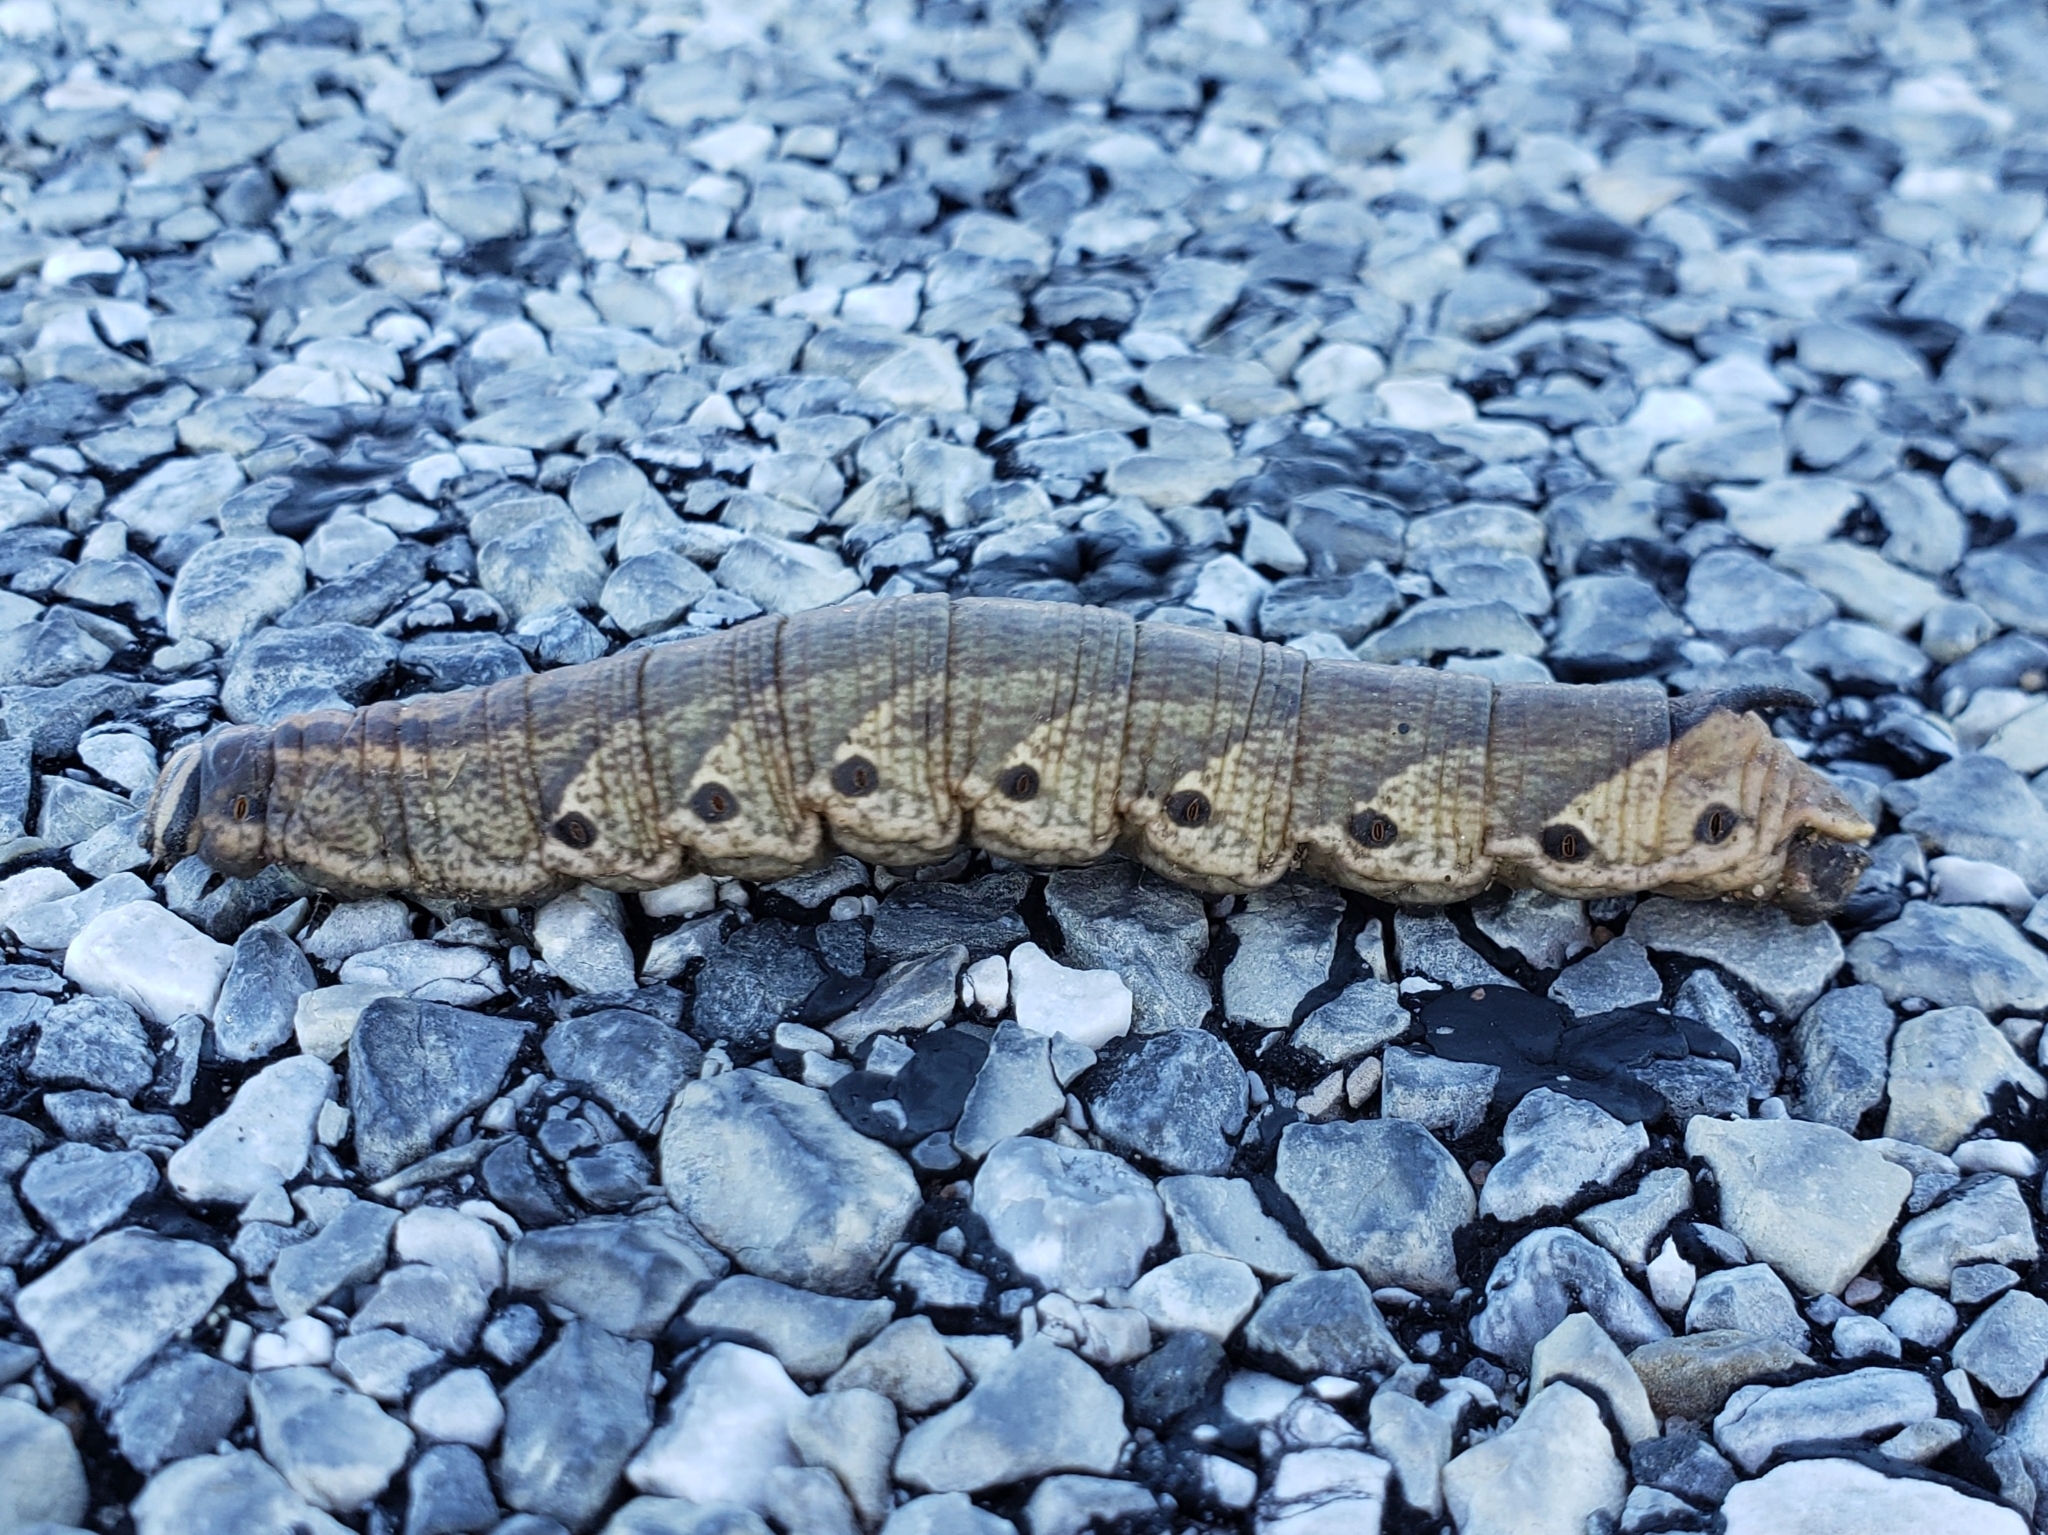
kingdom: Animalia
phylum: Arthropoda
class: Insecta
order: Lepidoptera
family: Sphingidae
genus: Agrius
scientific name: Agrius cingulata
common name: Pink-spotted hawkmoth
